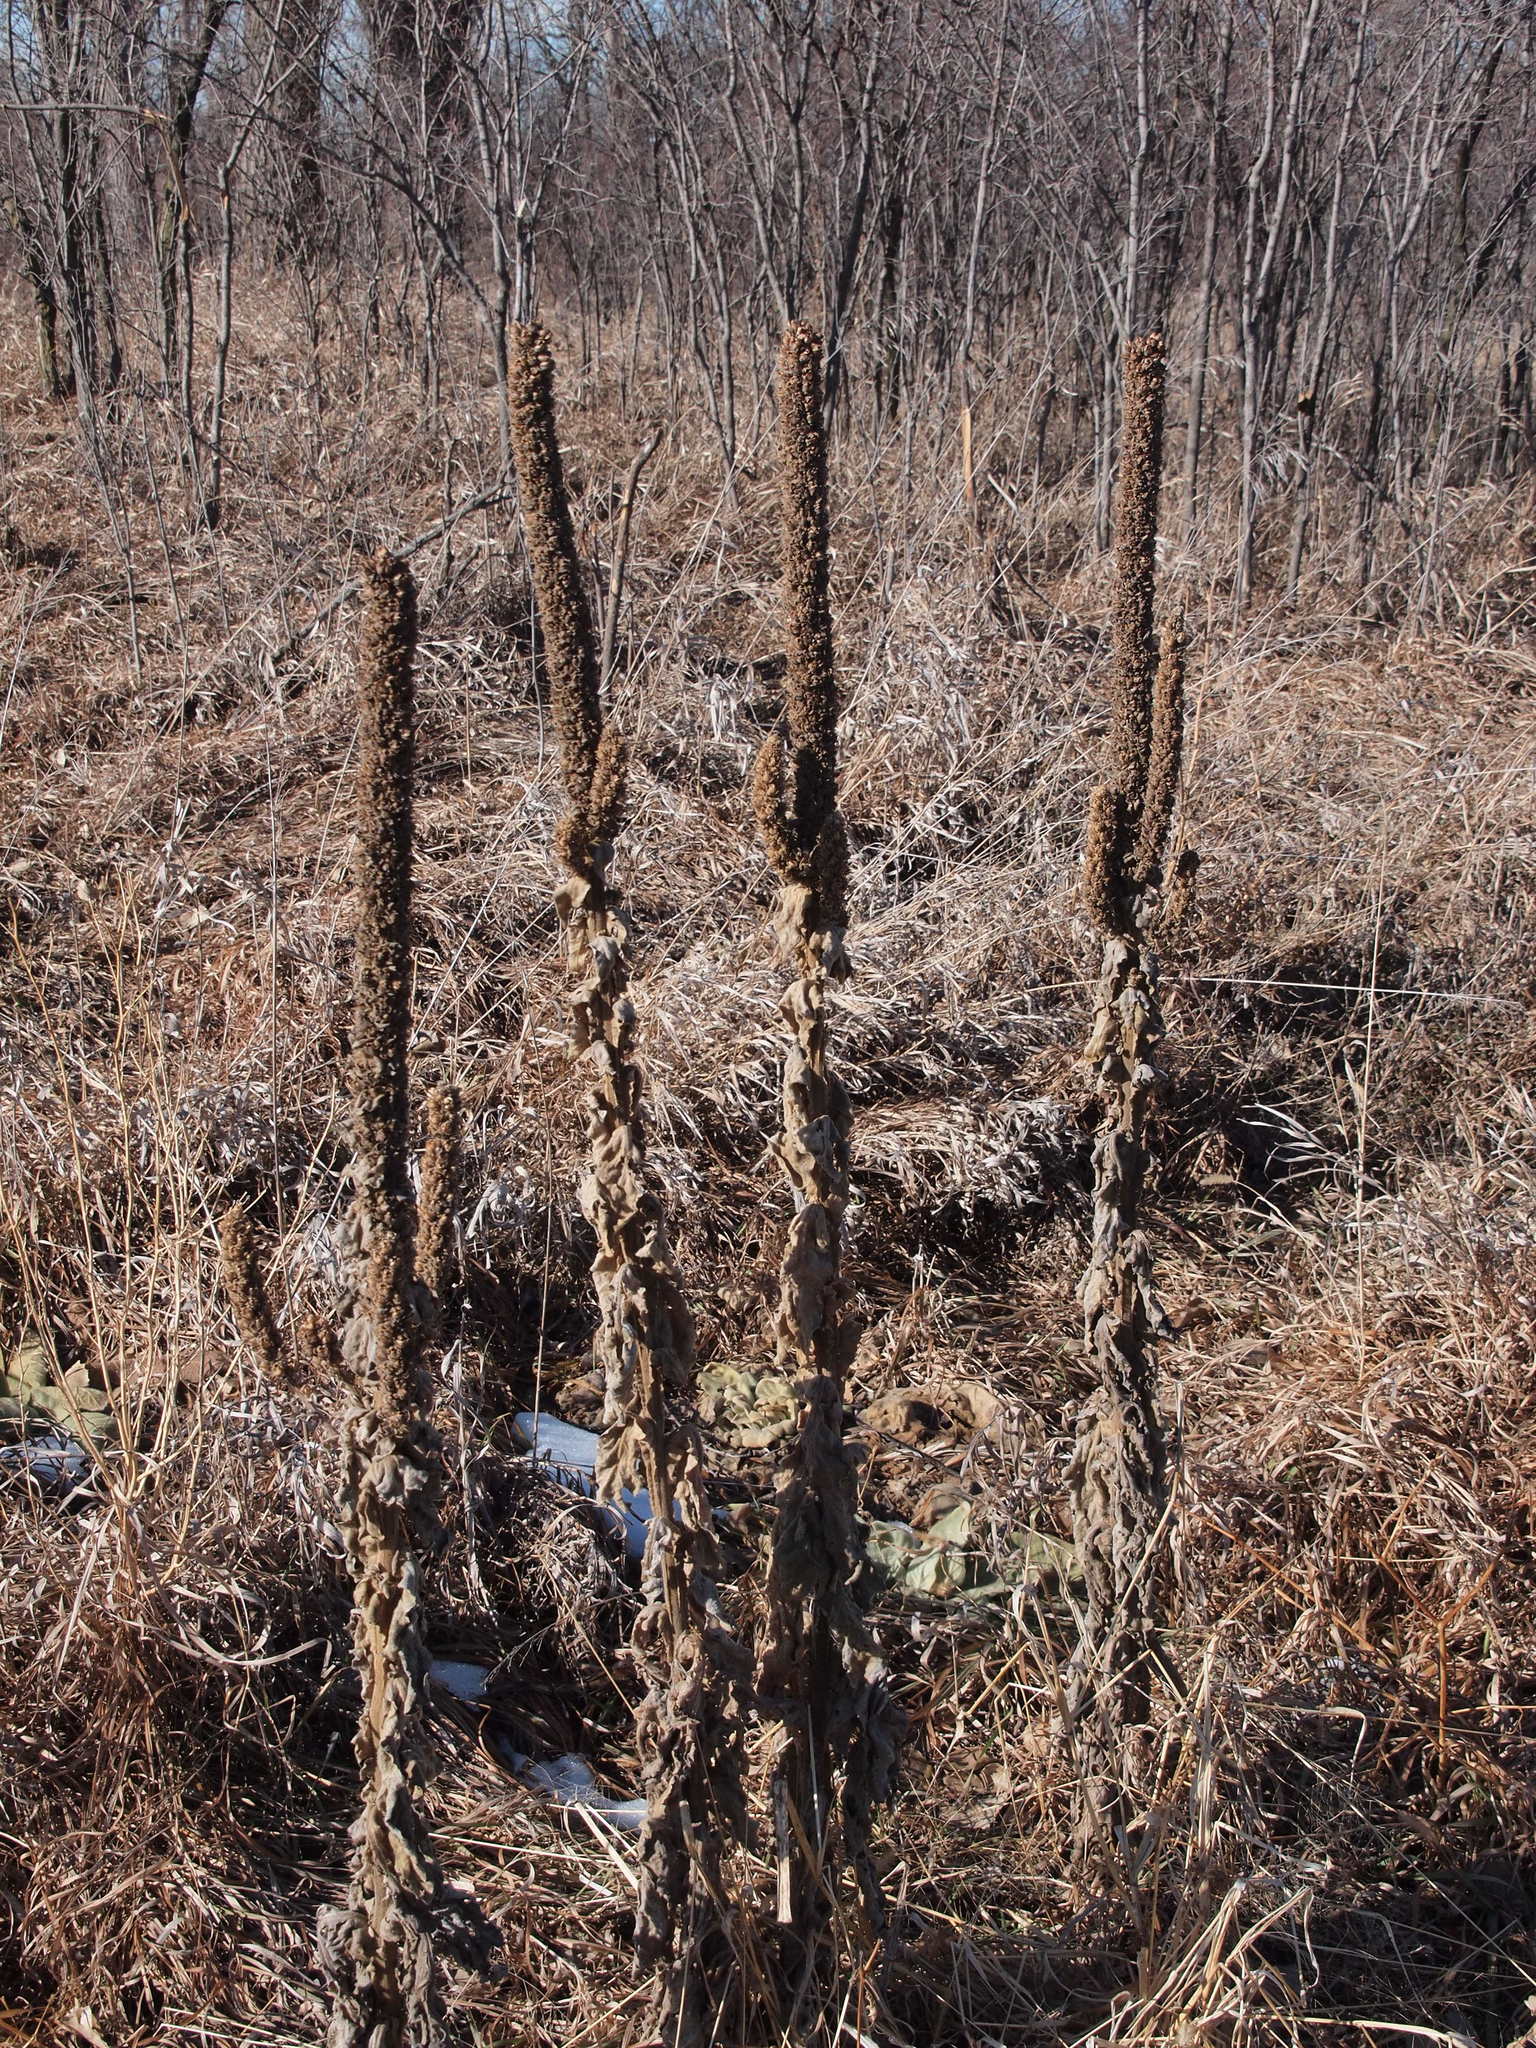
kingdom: Plantae
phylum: Tracheophyta
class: Magnoliopsida
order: Lamiales
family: Scrophulariaceae
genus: Verbascum
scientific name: Verbascum thapsus
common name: Common mullein
